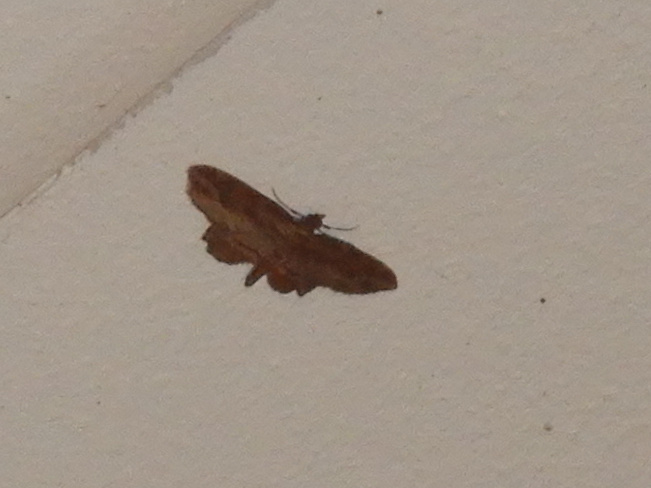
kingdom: Animalia
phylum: Arthropoda
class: Insecta
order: Lepidoptera
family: Geometridae
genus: Chloroclystis
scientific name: Chloroclystis filata
